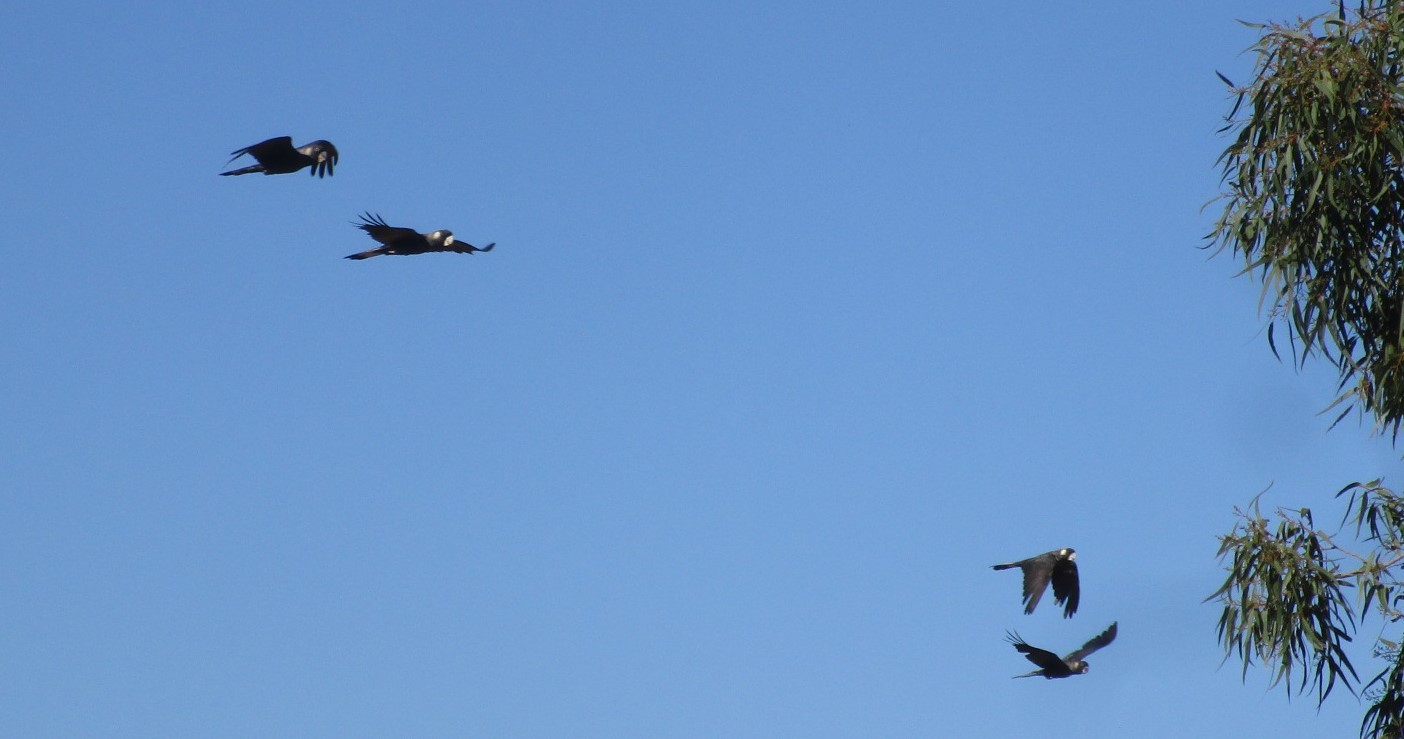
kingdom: Animalia
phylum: Chordata
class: Aves
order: Psittaciformes
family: Cacatuidae
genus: Zanda
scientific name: Zanda latirostris
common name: Short-billed black-cockatoo
